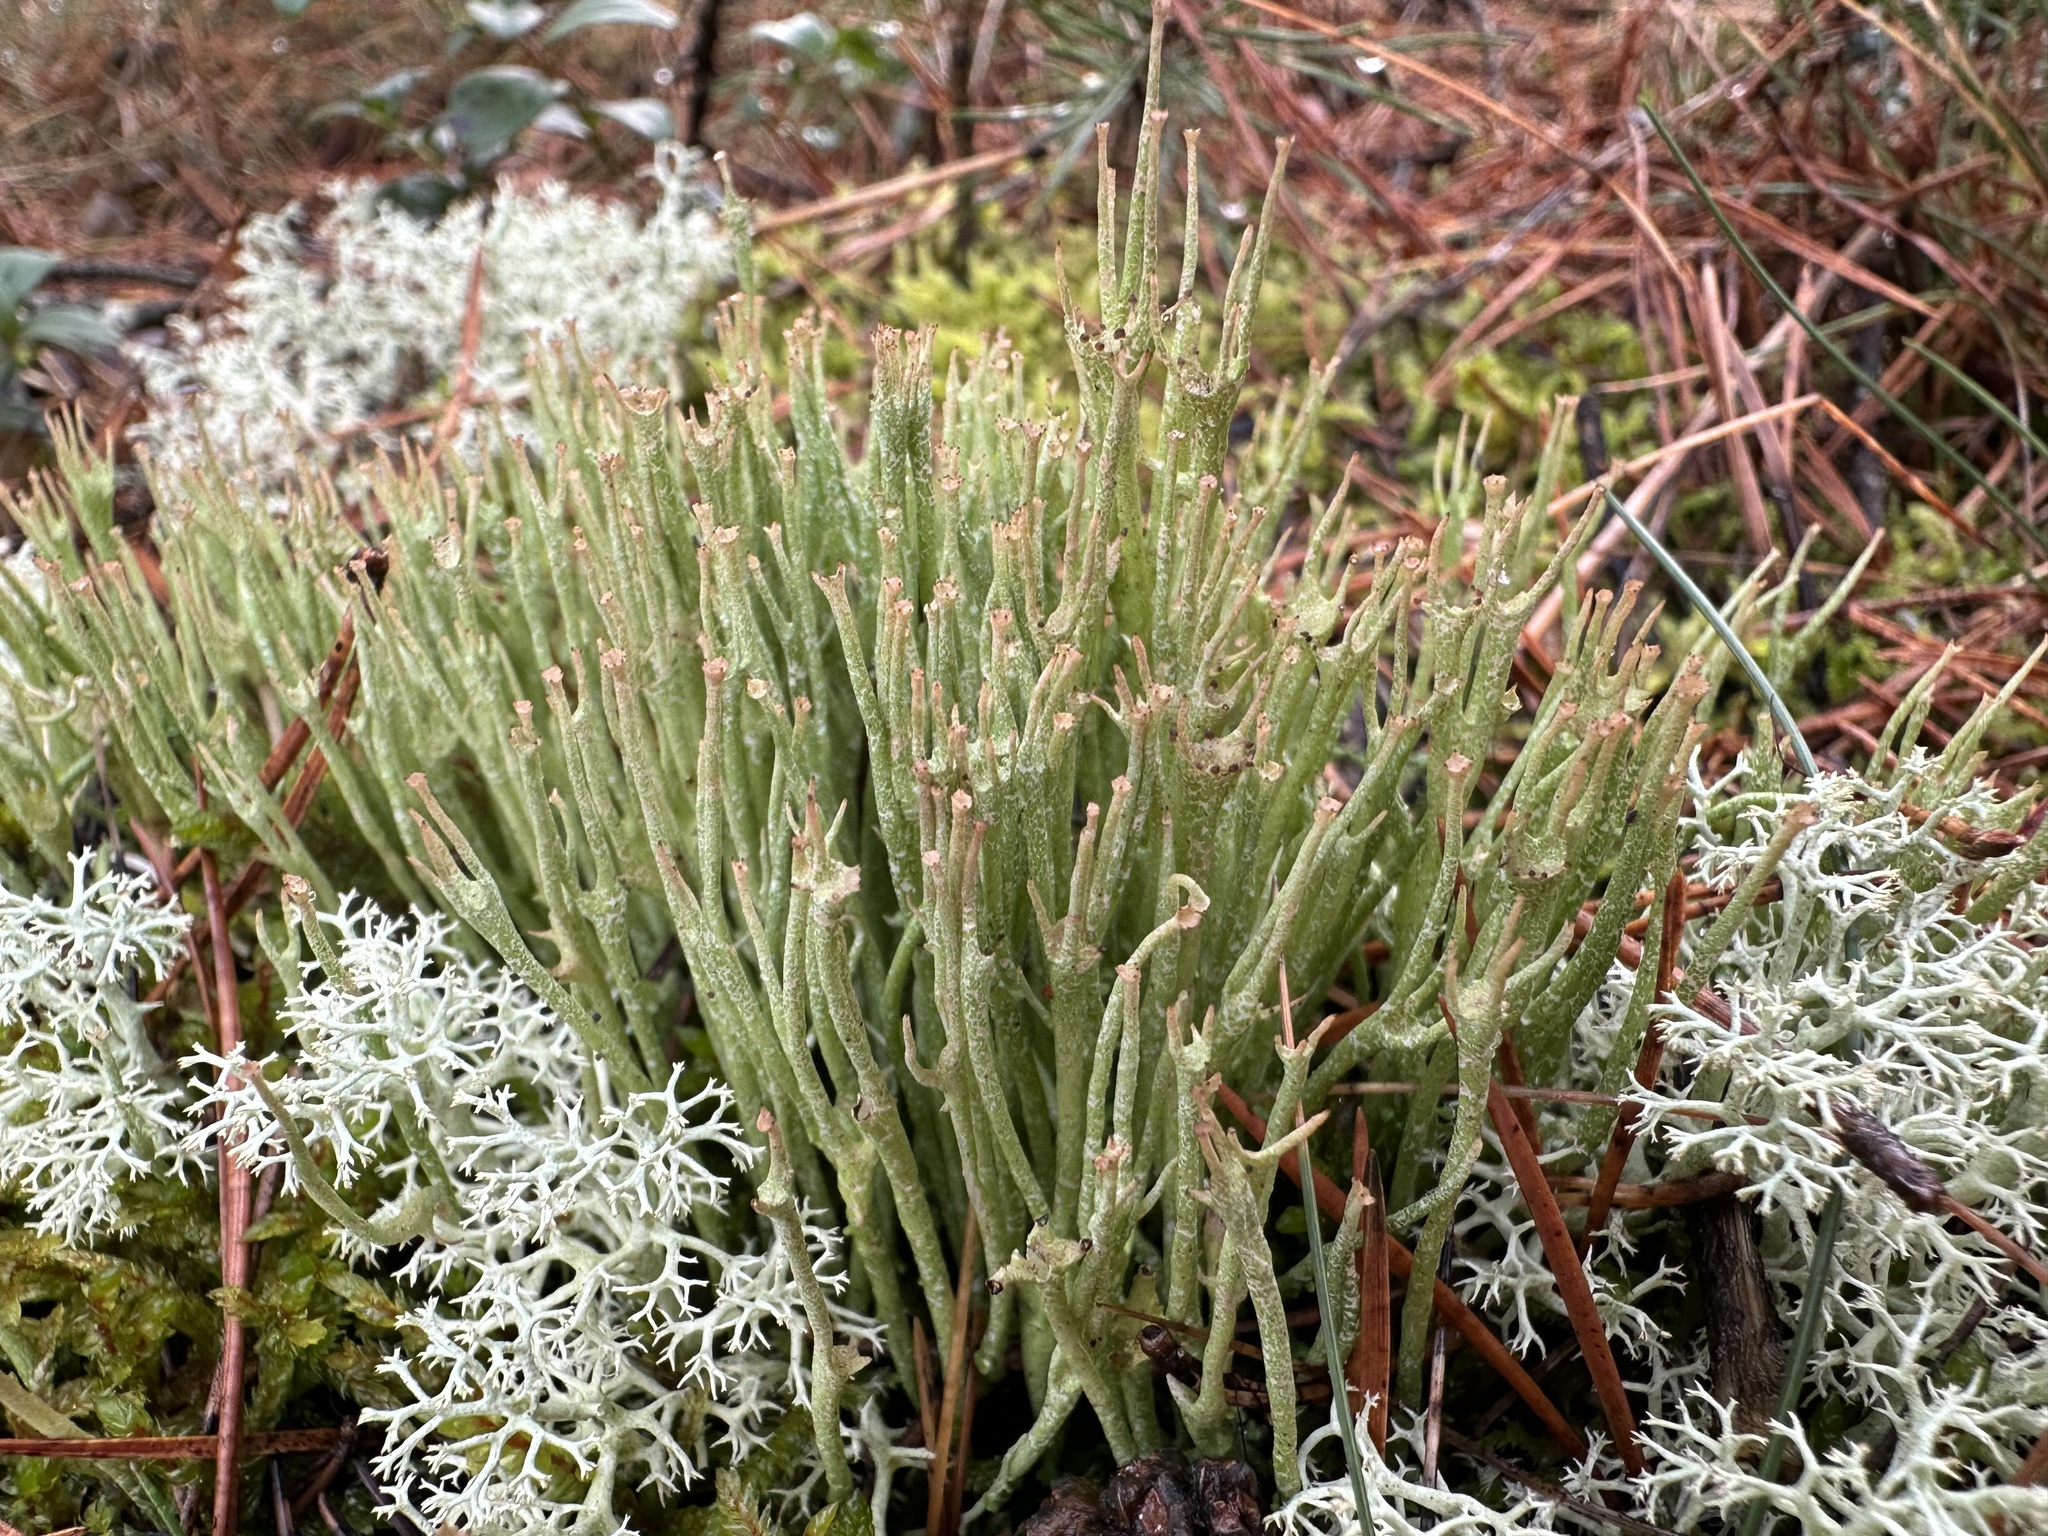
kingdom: Fungi
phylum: Ascomycota
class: Lecanoromycetes
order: Lecanorales
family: Cladoniaceae
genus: Cladonia
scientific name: Cladonia gracilis
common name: Smooth clad lichen
